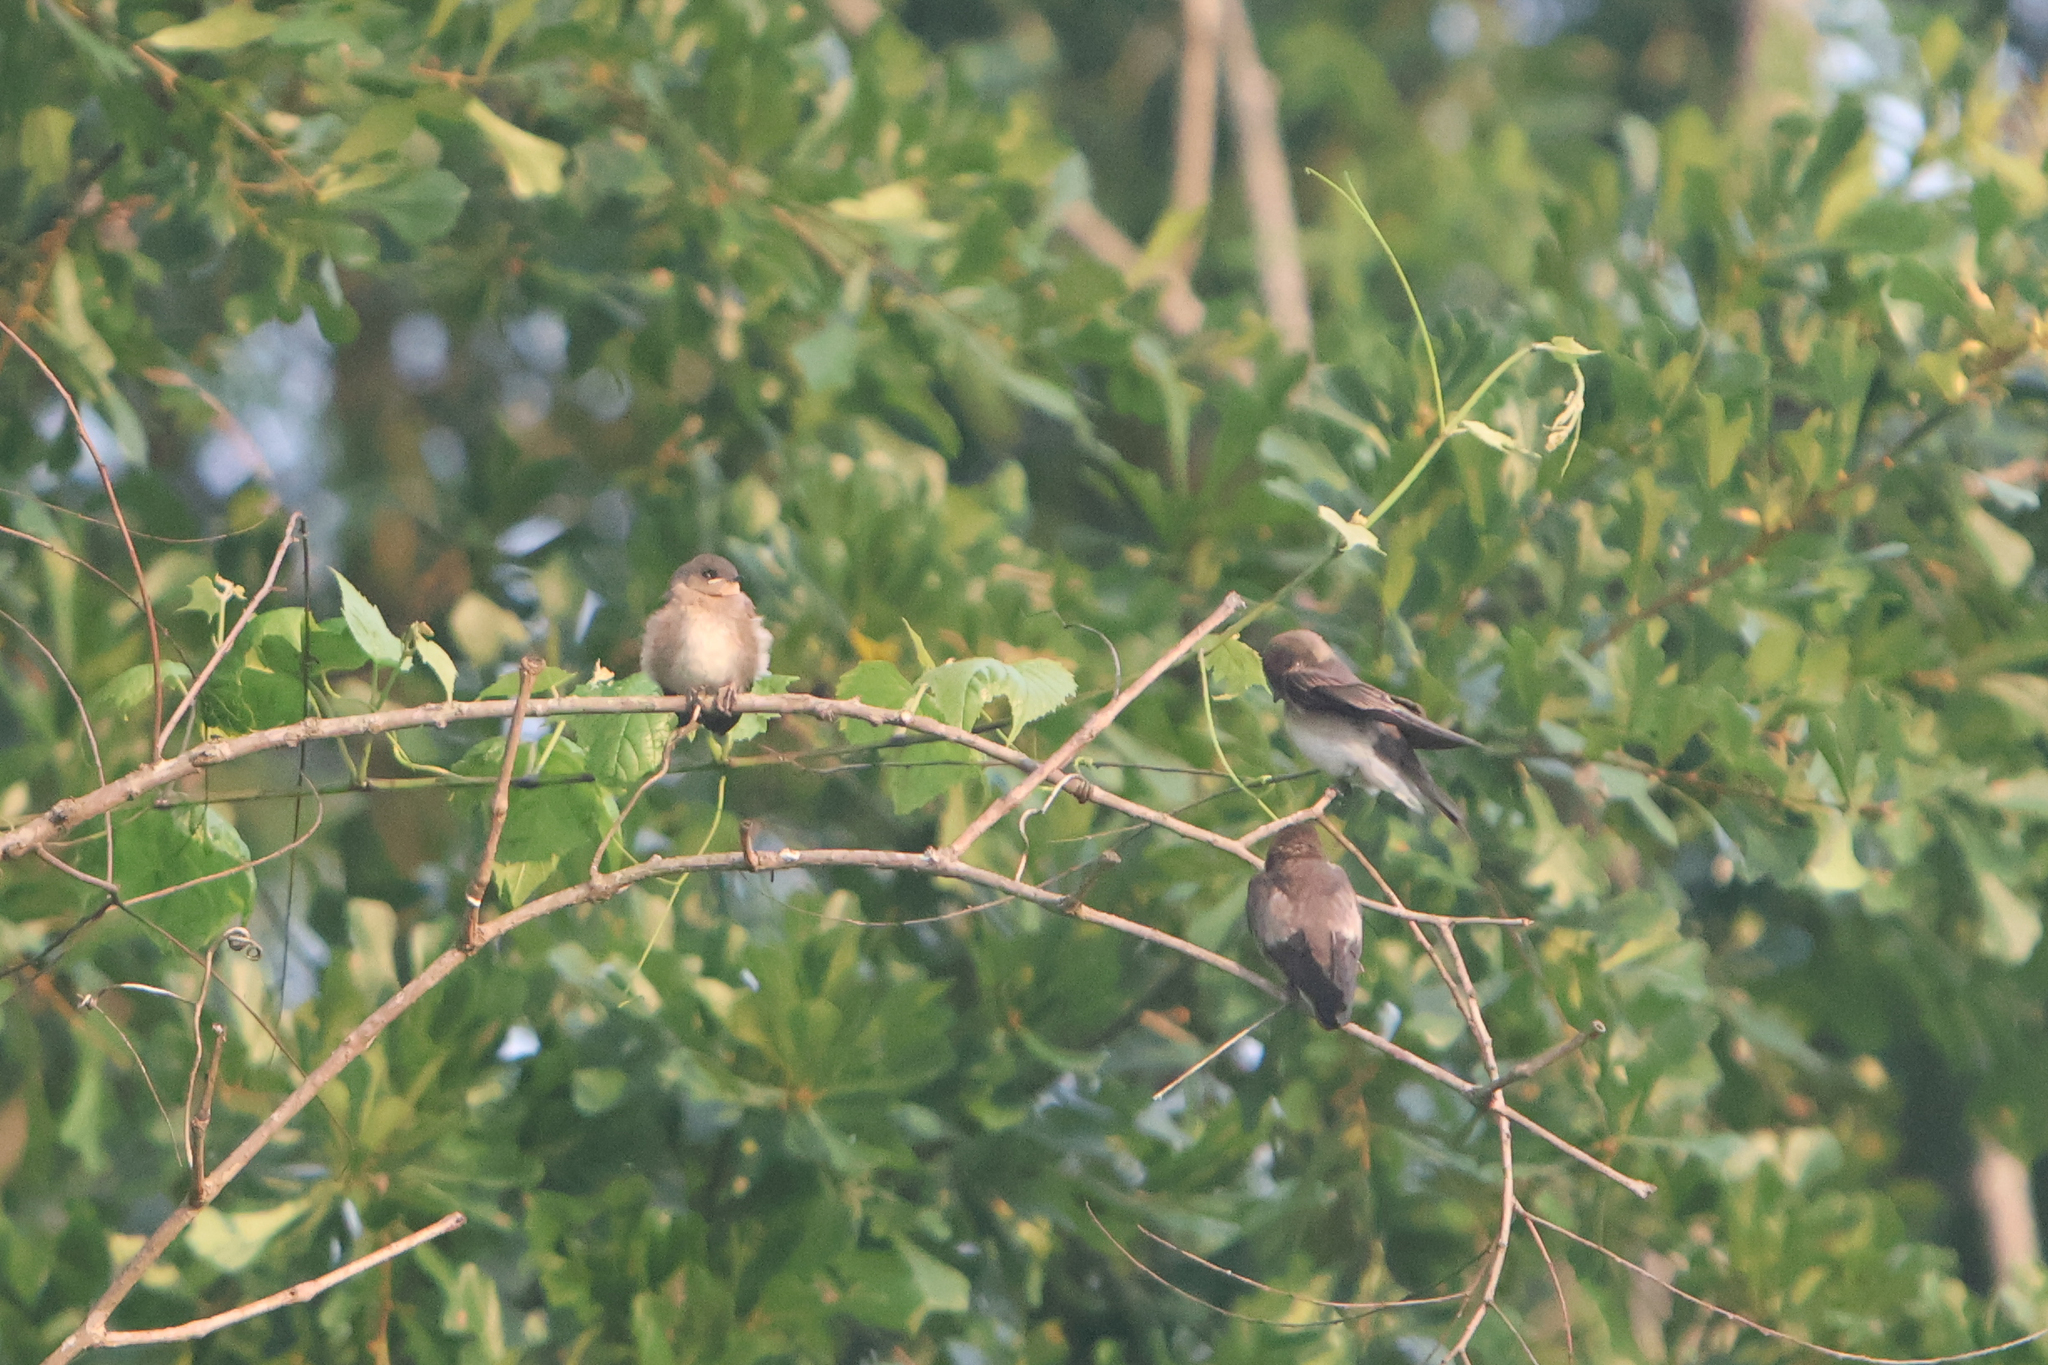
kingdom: Animalia
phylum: Chordata
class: Aves
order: Passeriformes
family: Hirundinidae
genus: Stelgidopteryx
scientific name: Stelgidopteryx serripennis
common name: Northern rough-winged swallow
